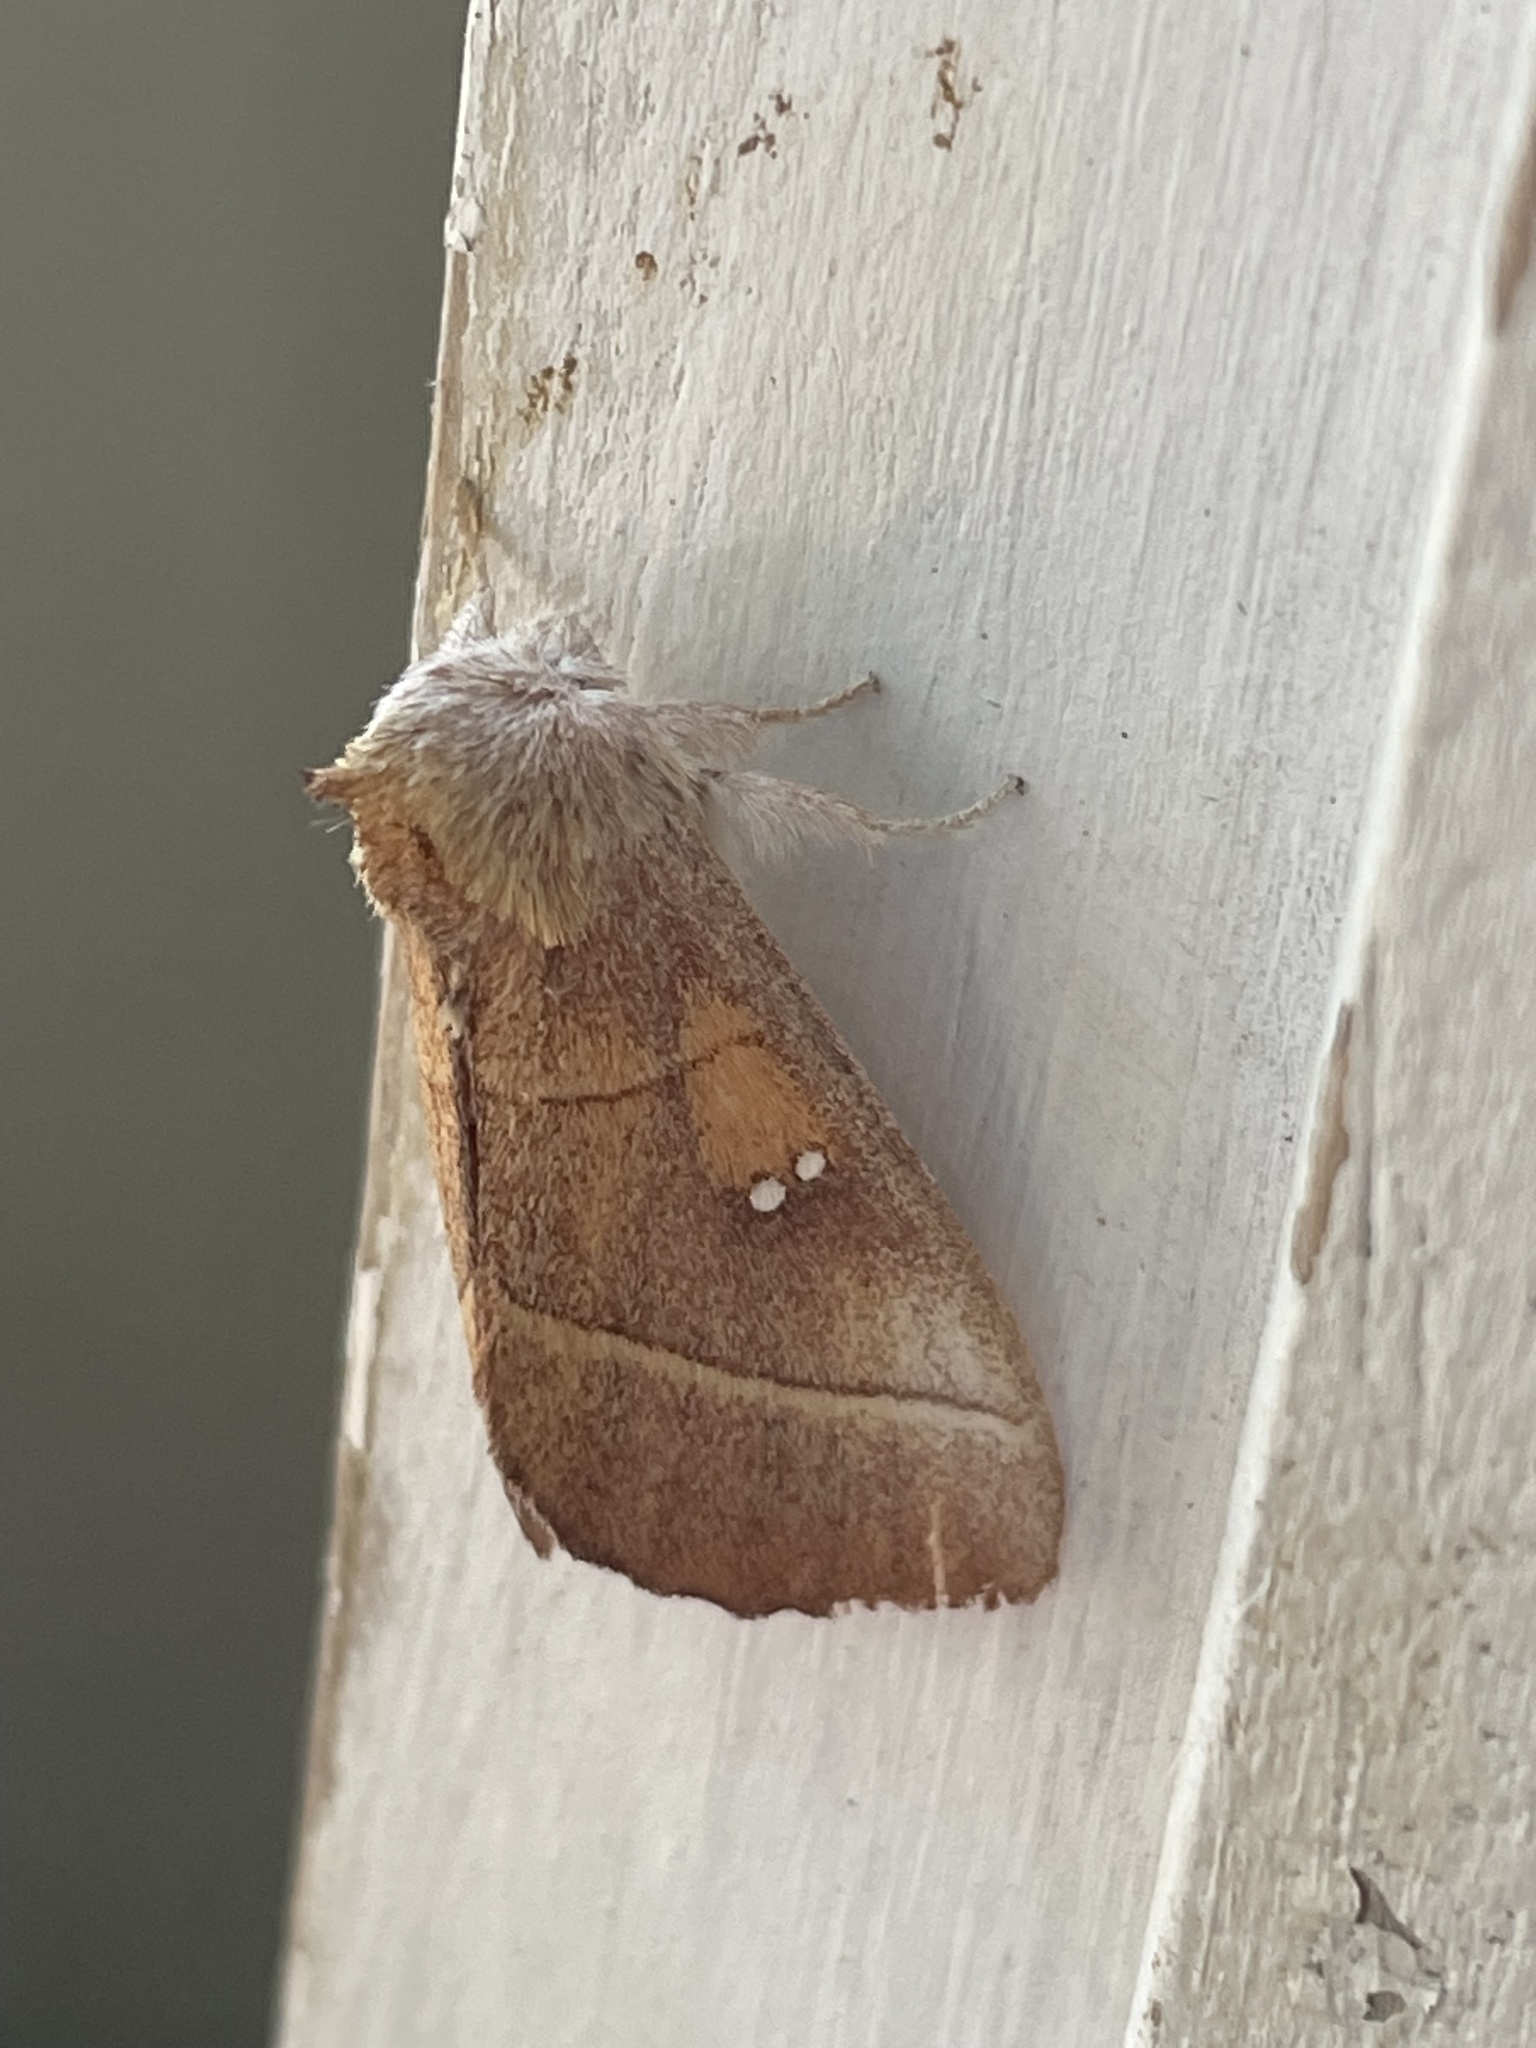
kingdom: Animalia
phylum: Arthropoda
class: Insecta
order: Lepidoptera
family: Notodontidae
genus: Nadata
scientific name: Nadata gibbosa
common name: White-dotted prominent
